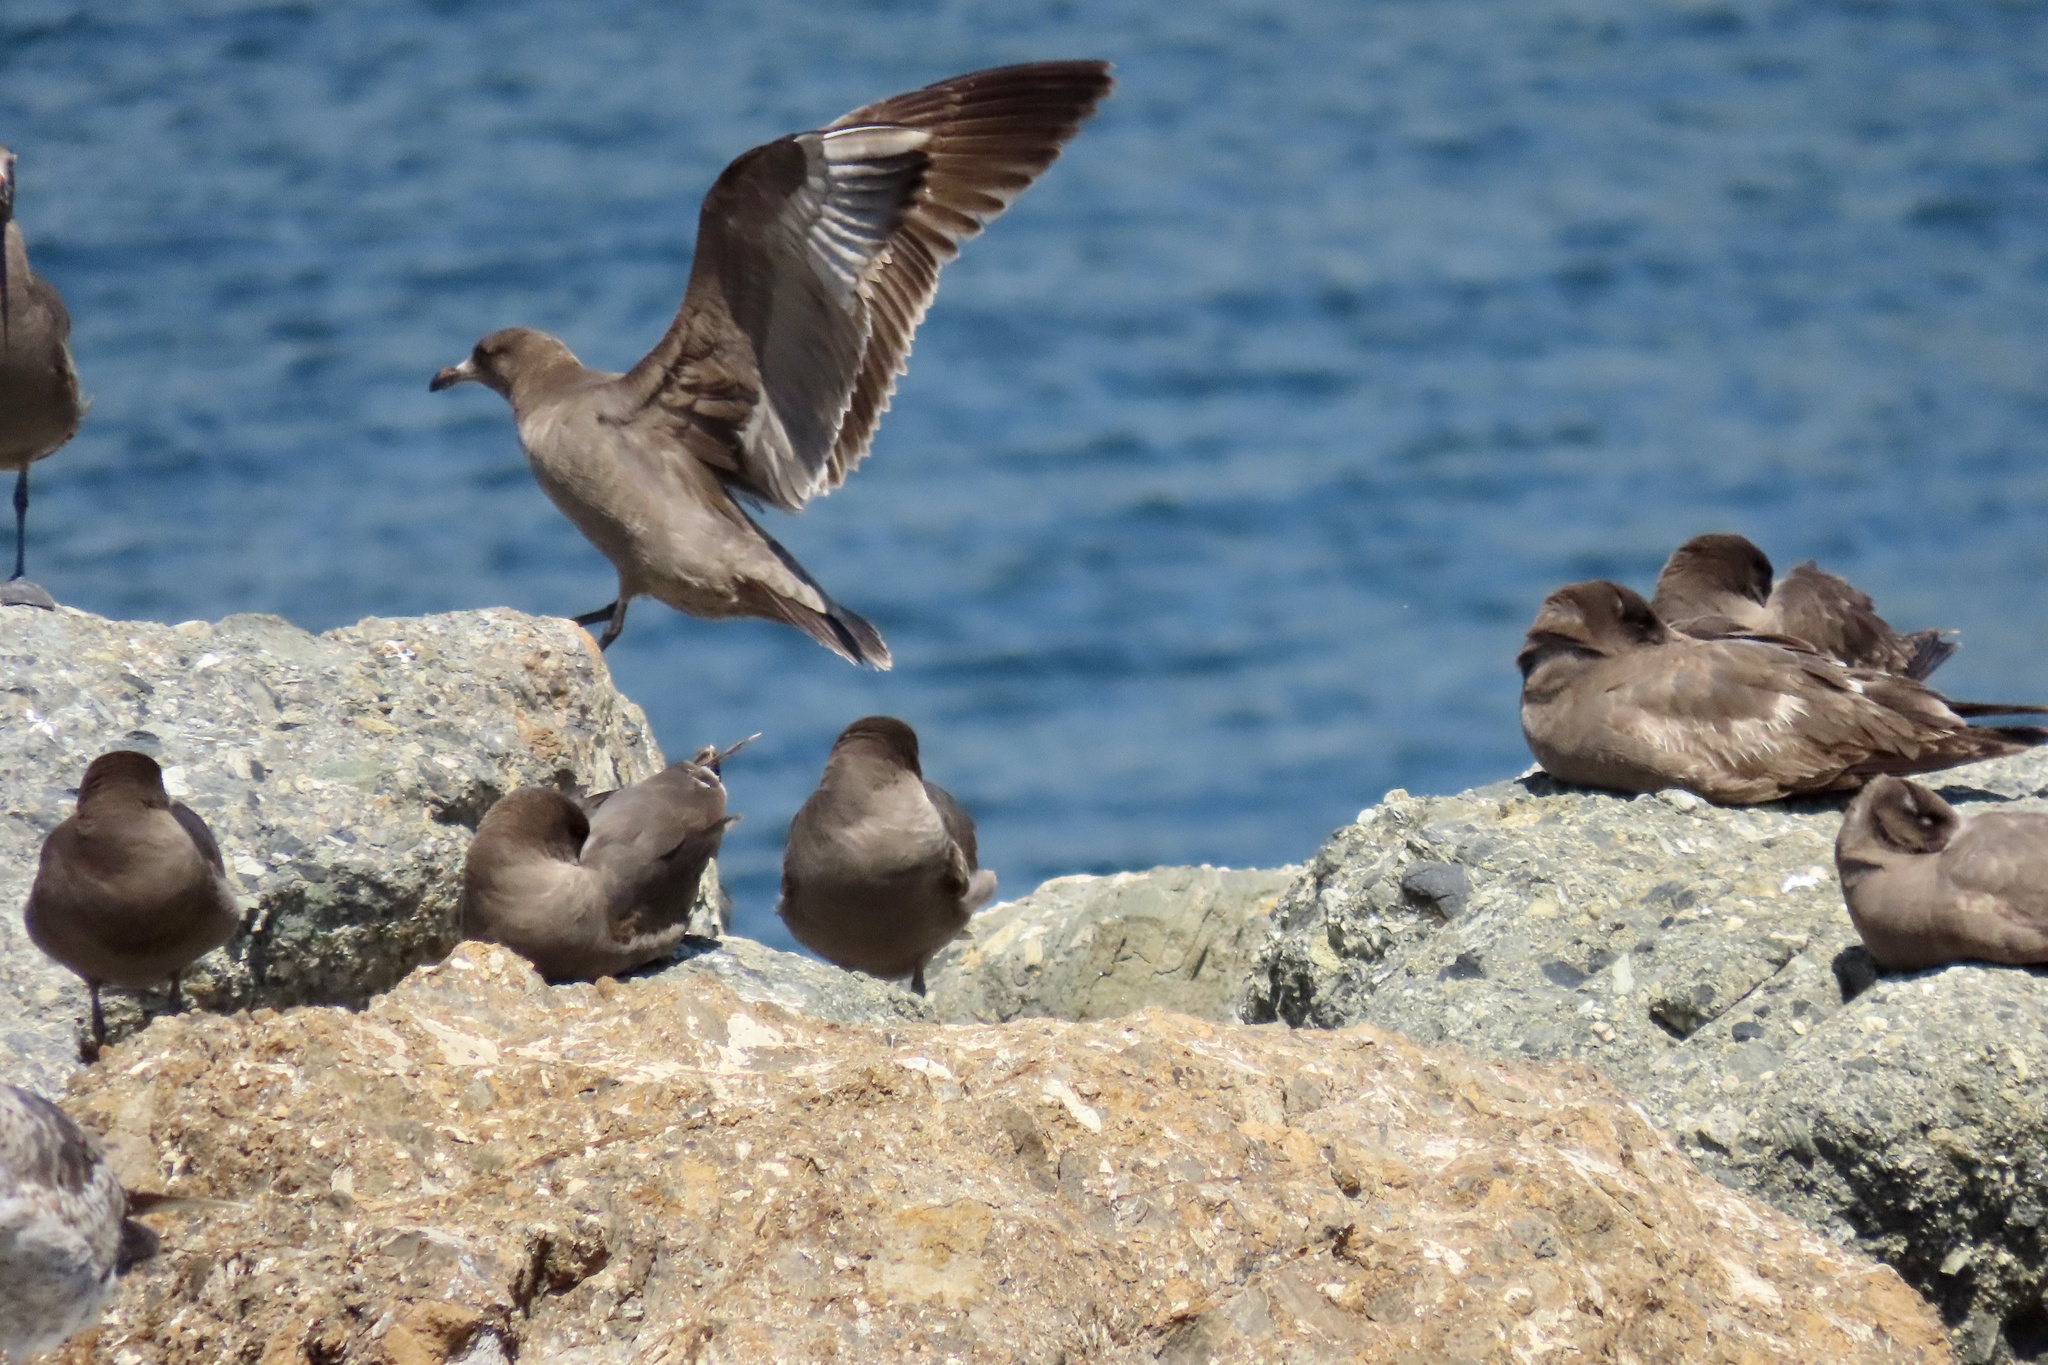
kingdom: Animalia
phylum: Chordata
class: Aves
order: Charadriiformes
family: Laridae
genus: Larus
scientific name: Larus heermanni
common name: Heermann's gull
